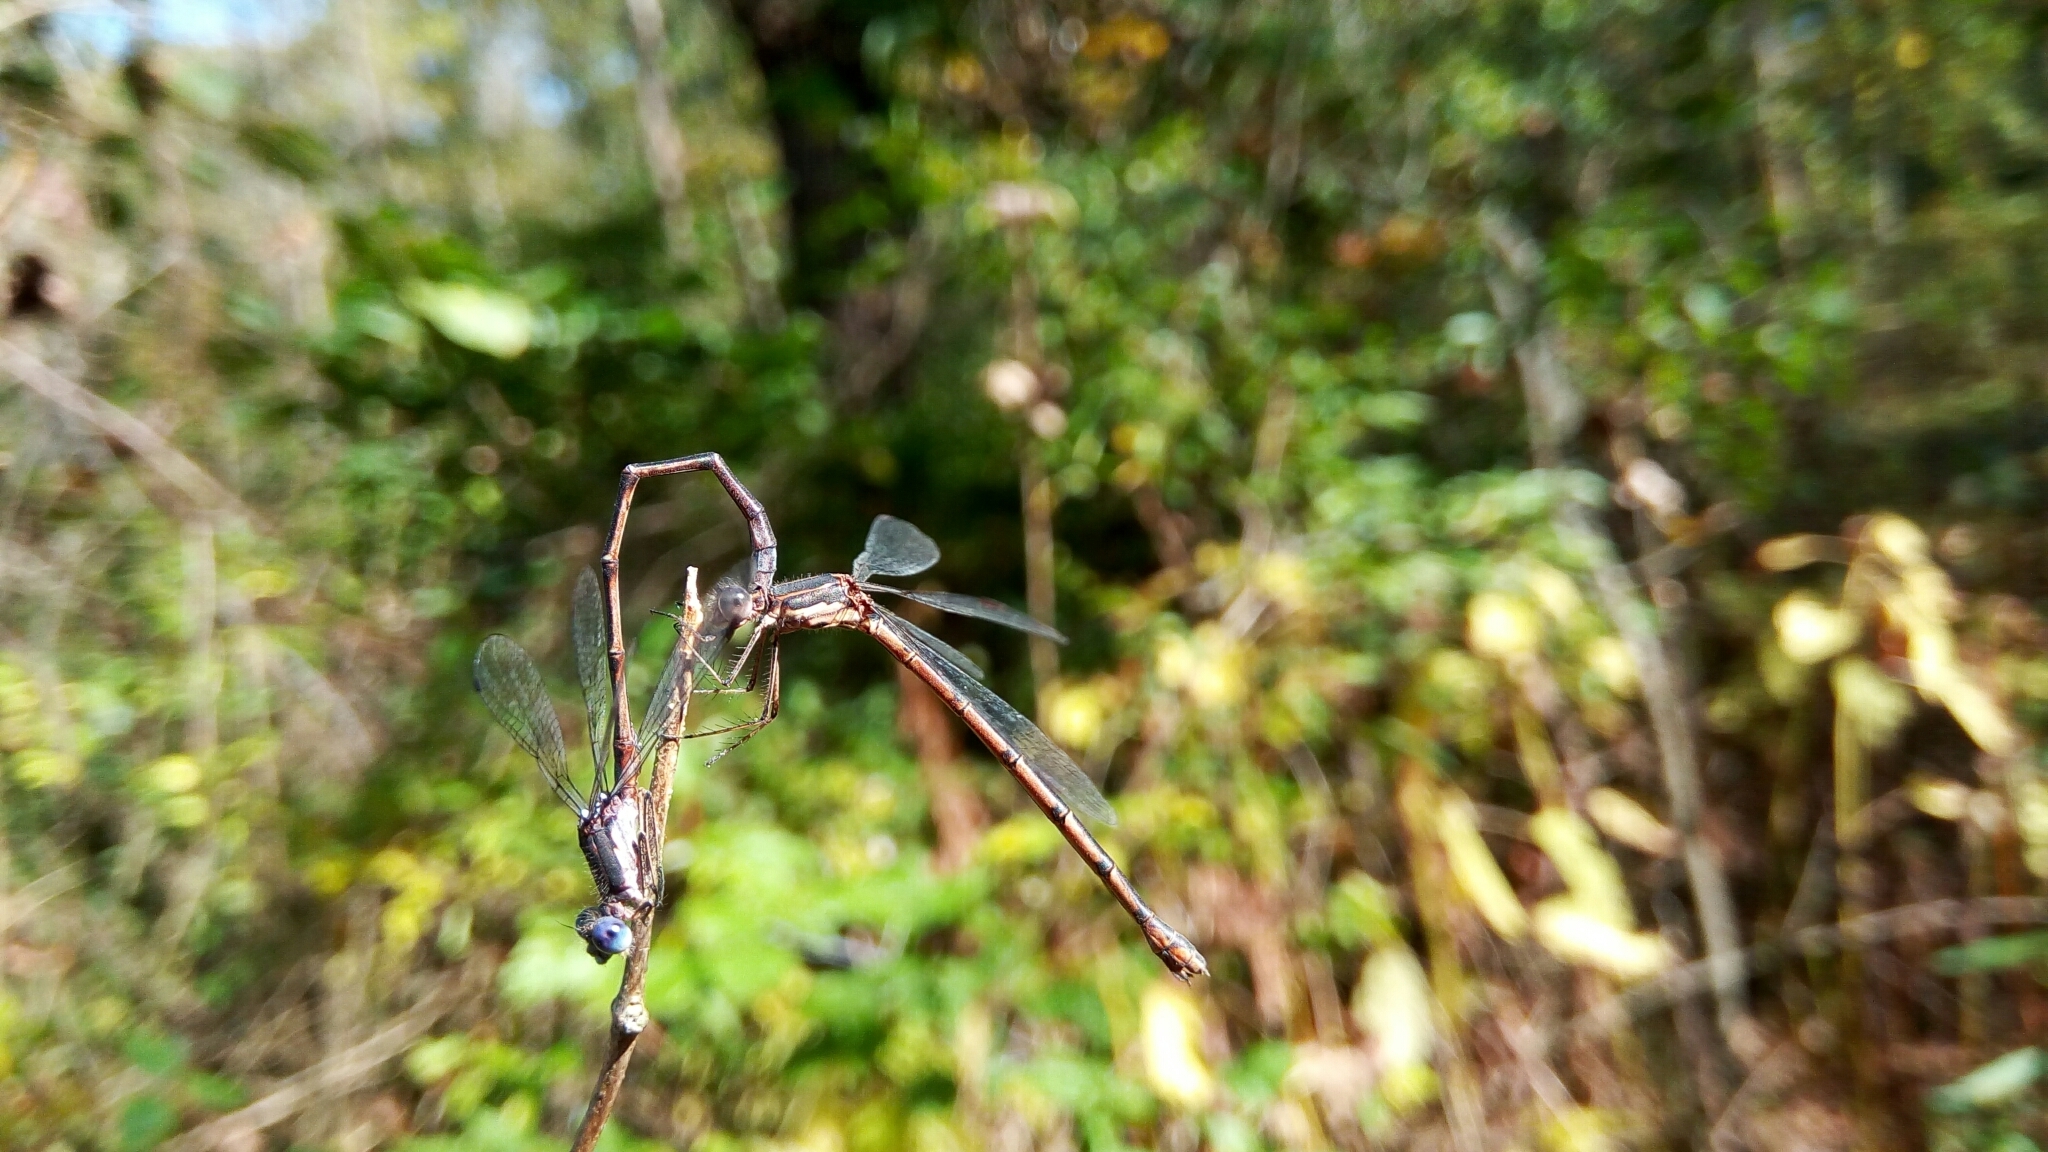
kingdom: Animalia
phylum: Arthropoda
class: Insecta
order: Odonata
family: Lestidae
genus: Lestes
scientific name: Lestes congener
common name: Spotted spreadwing
